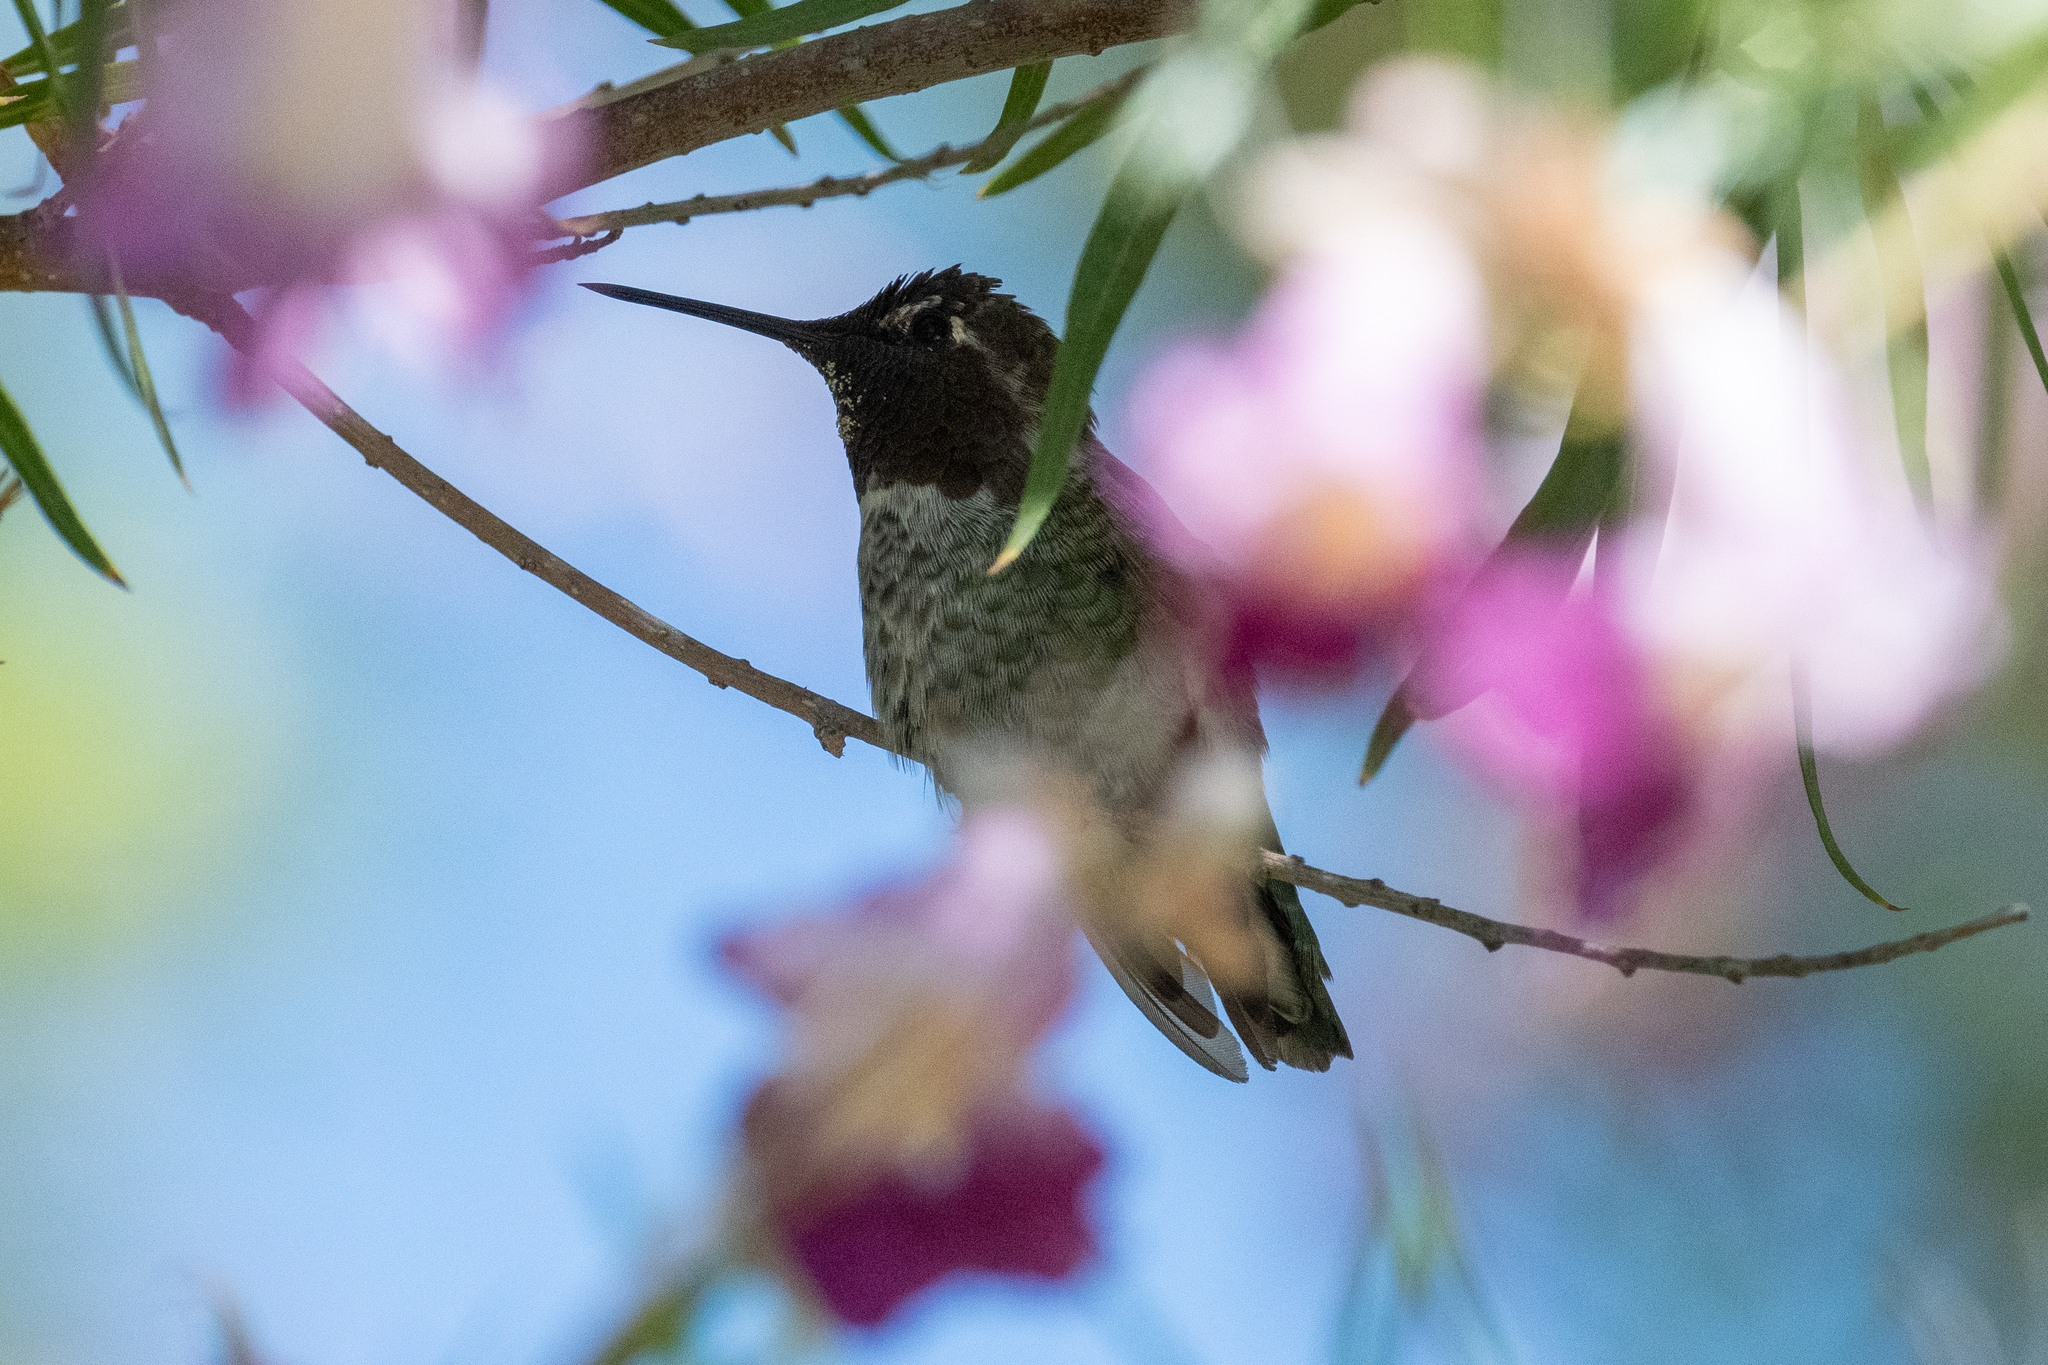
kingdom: Animalia
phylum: Chordata
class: Aves
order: Apodiformes
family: Trochilidae
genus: Calypte
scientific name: Calypte anna
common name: Anna's hummingbird
